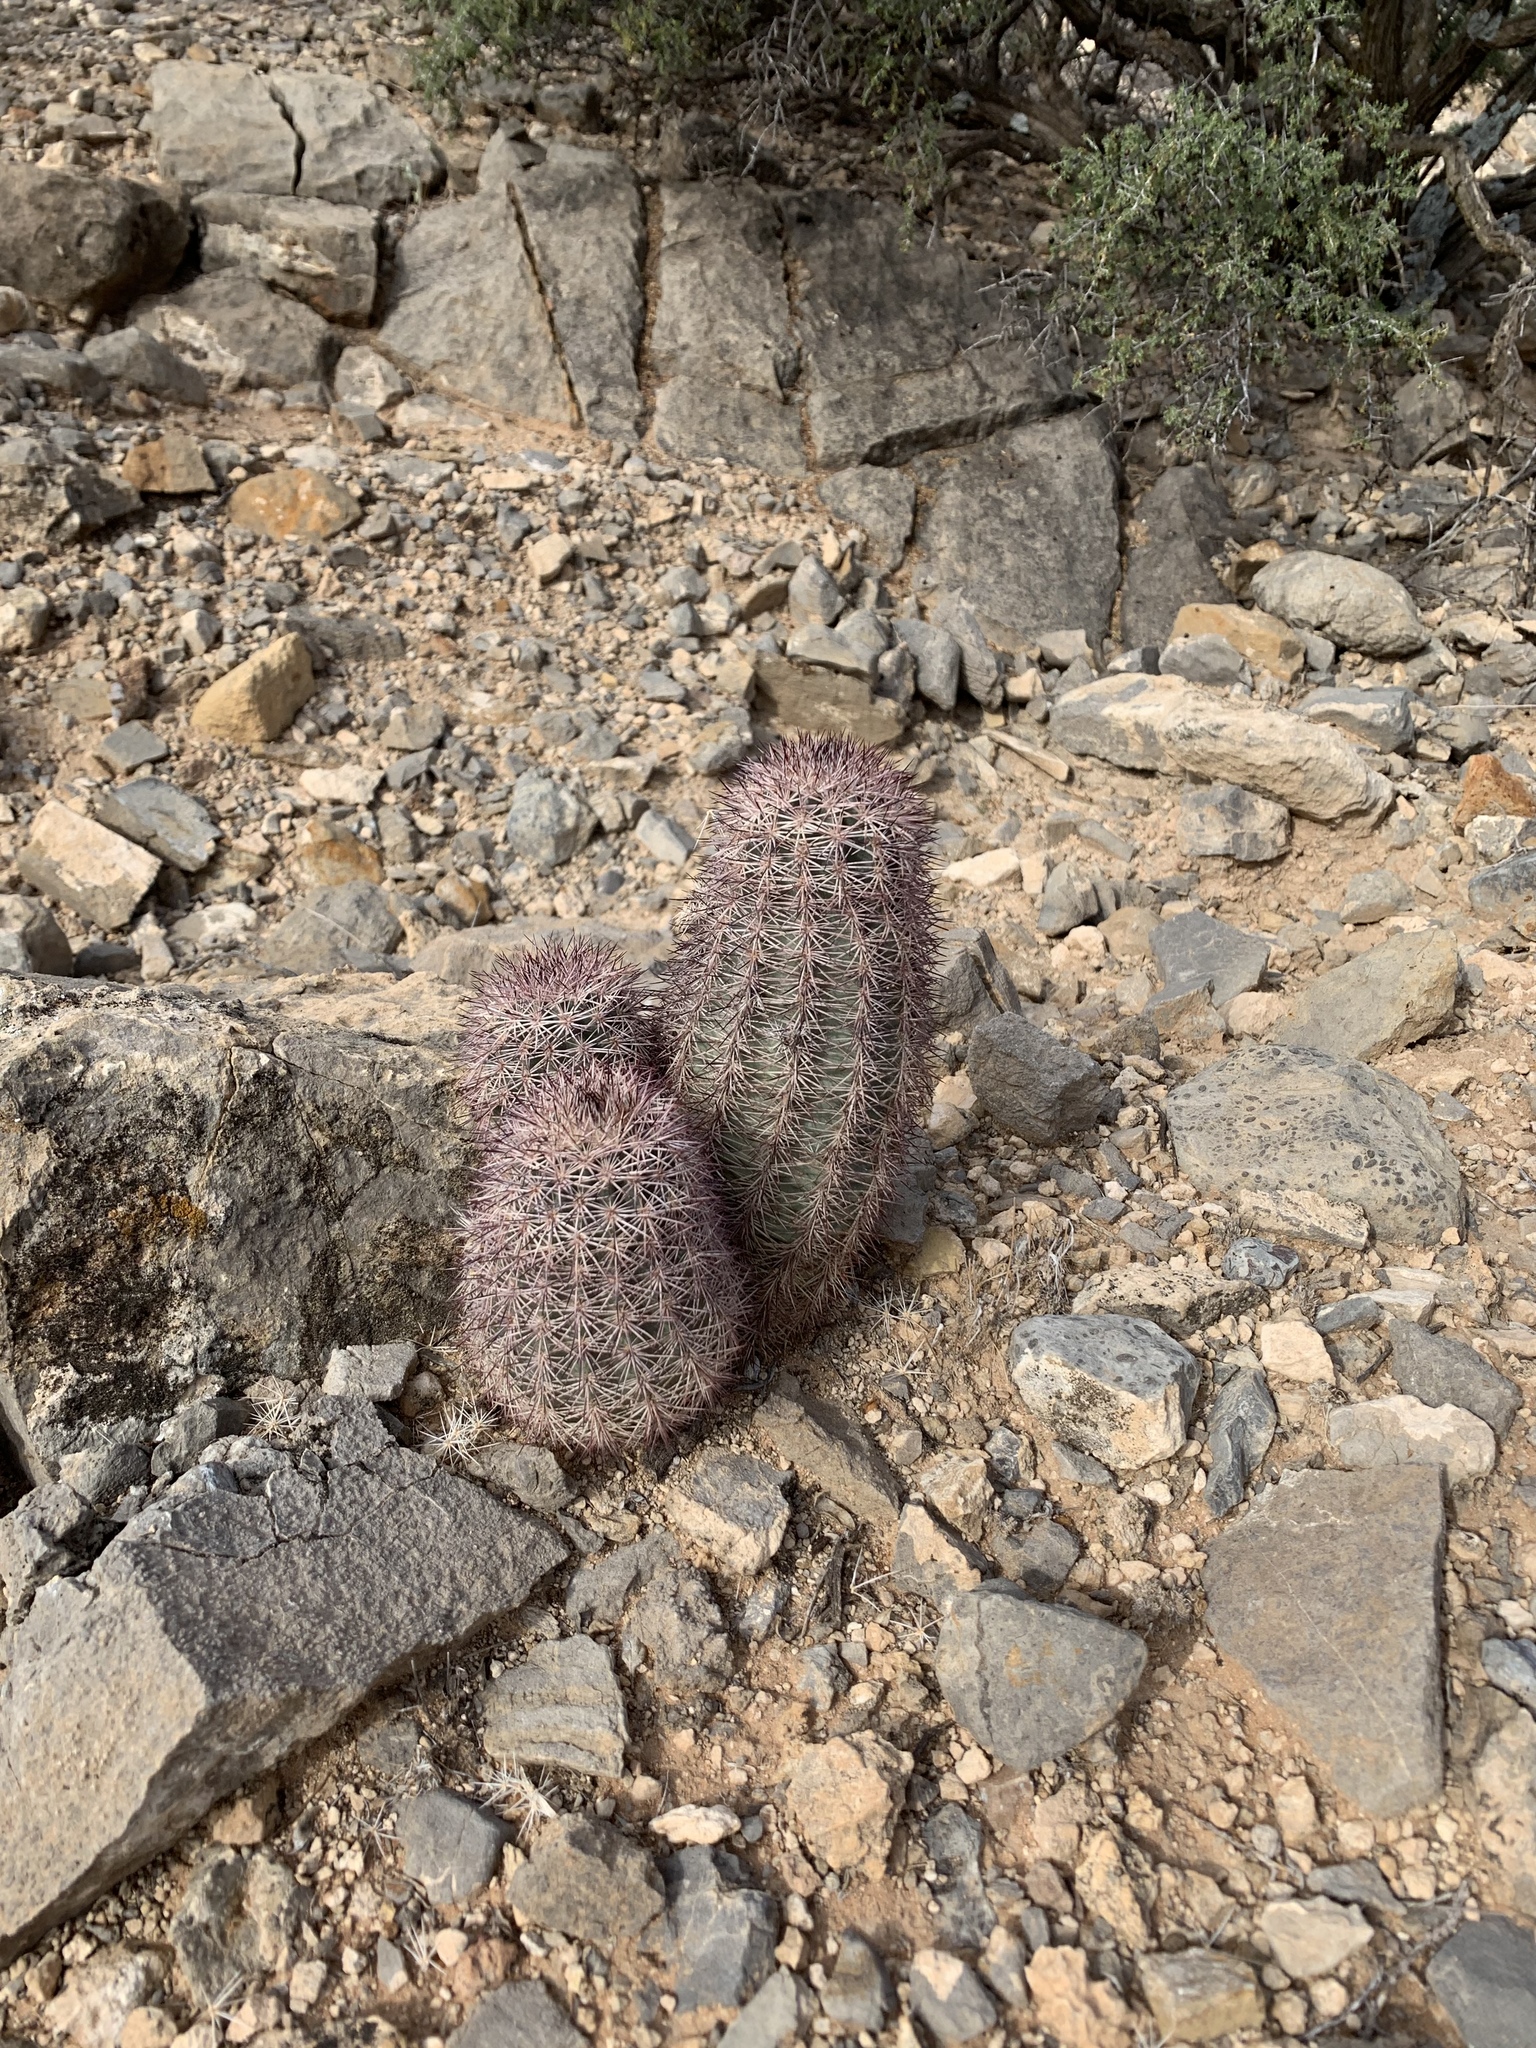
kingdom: Plantae
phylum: Tracheophyta
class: Magnoliopsida
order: Caryophyllales
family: Cactaceae
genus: Echinocereus
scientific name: Echinocereus dasyacanthus
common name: Spiny hedgehog cactus
